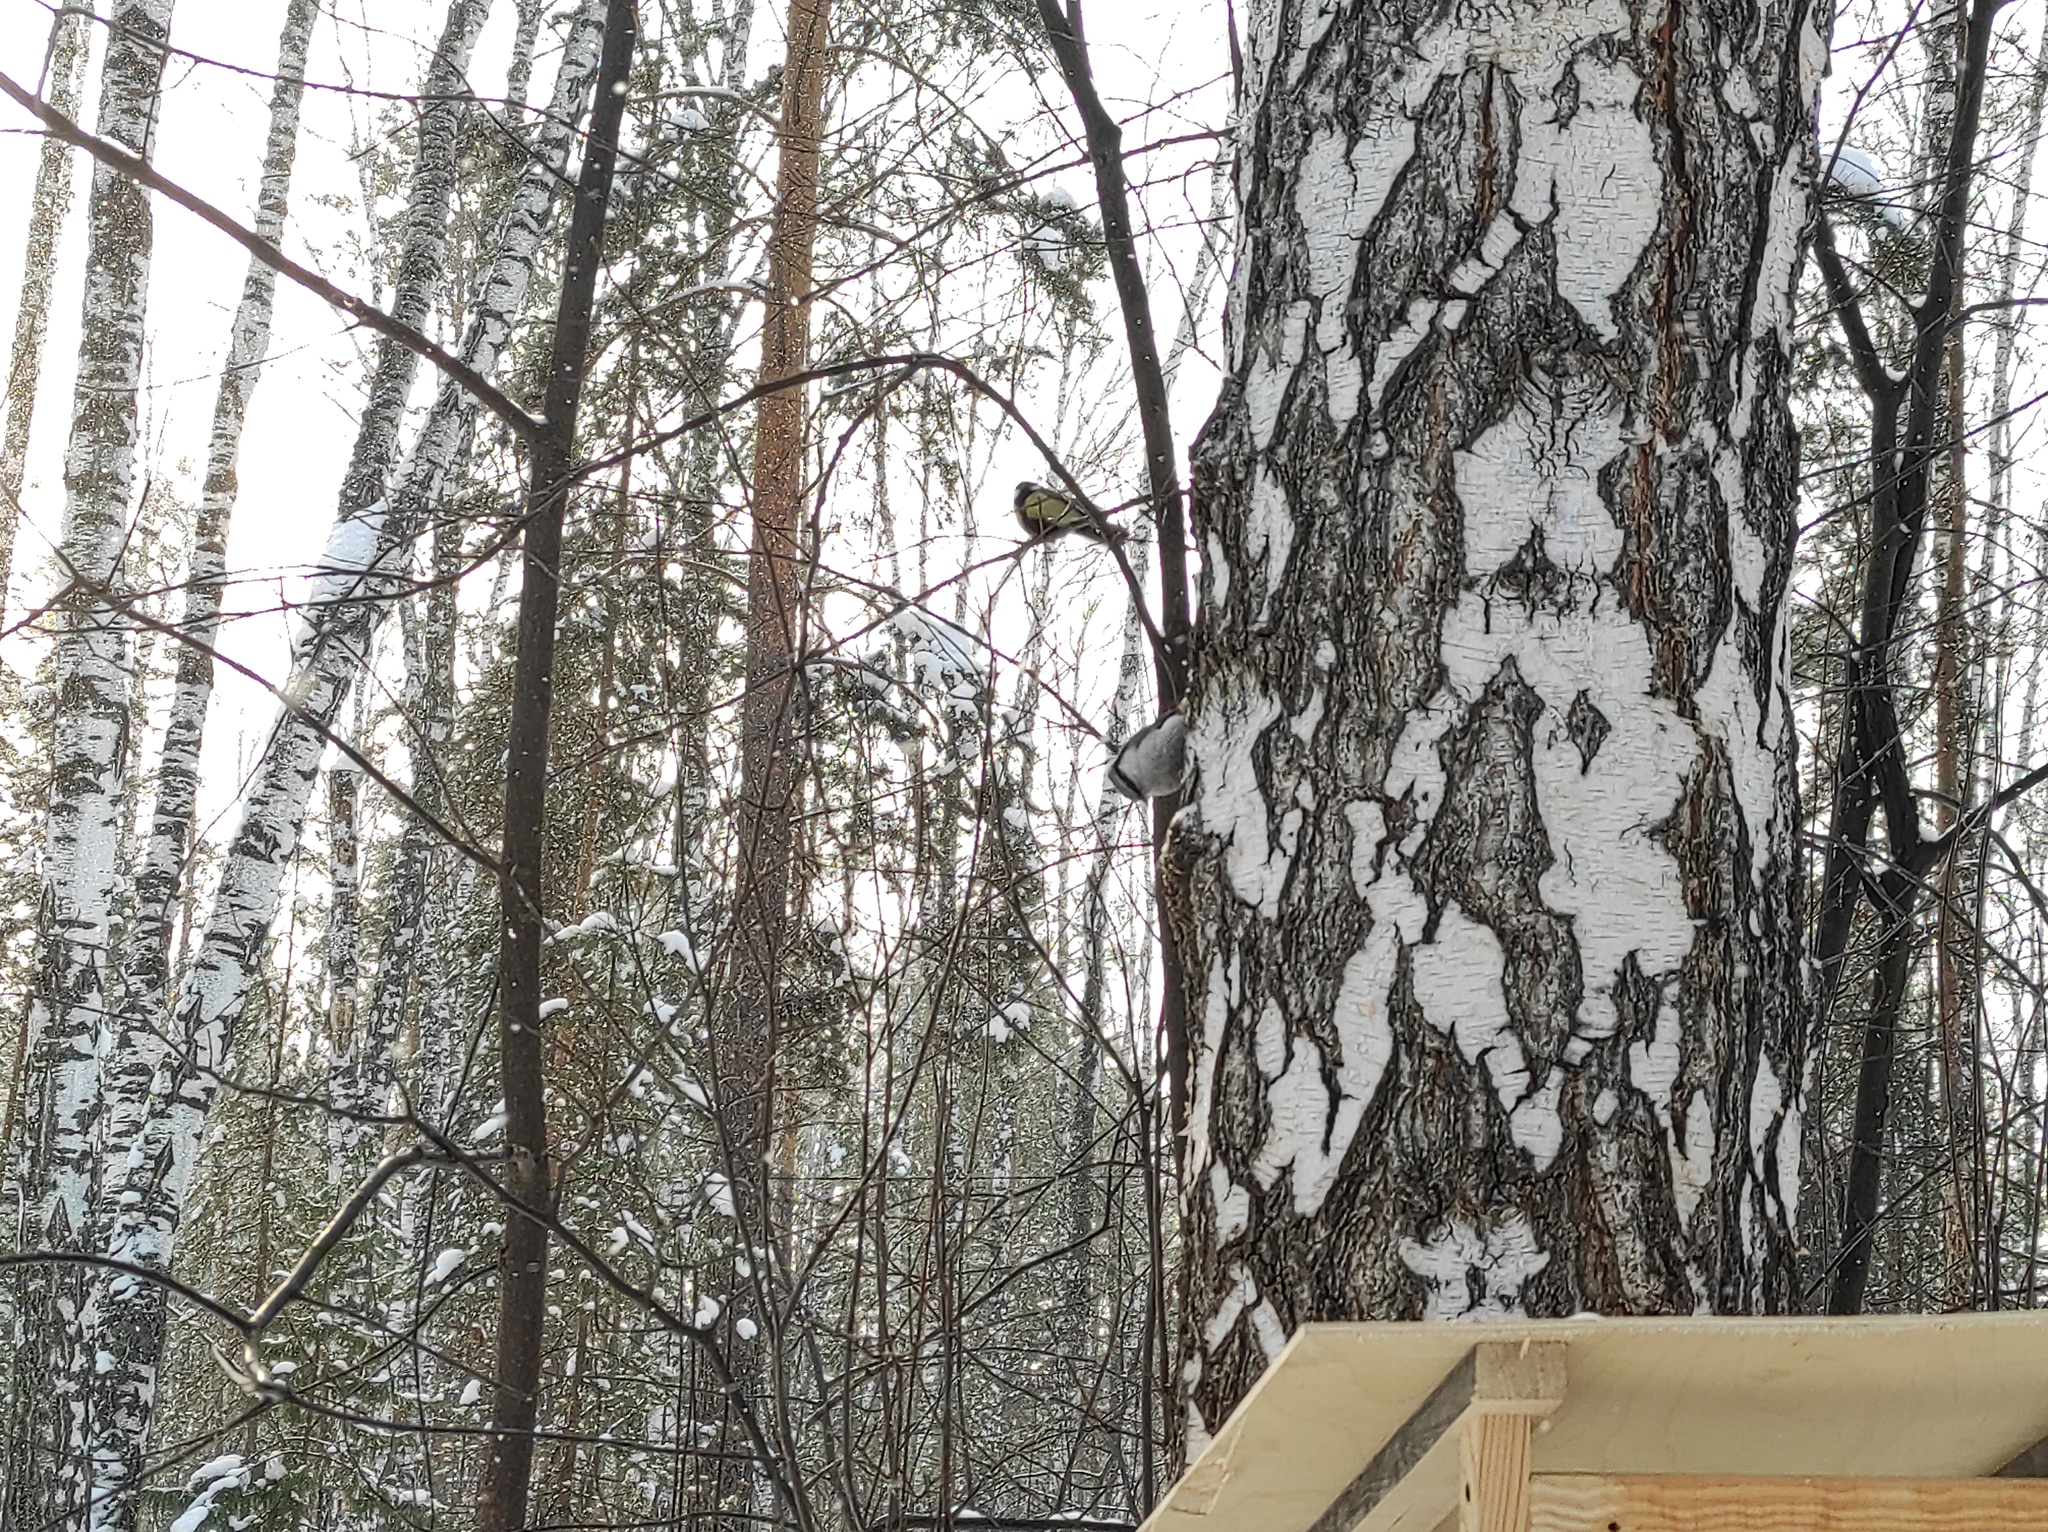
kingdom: Animalia
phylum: Chordata
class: Aves
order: Passeriformes
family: Paridae
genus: Parus
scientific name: Parus major
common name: Great tit
